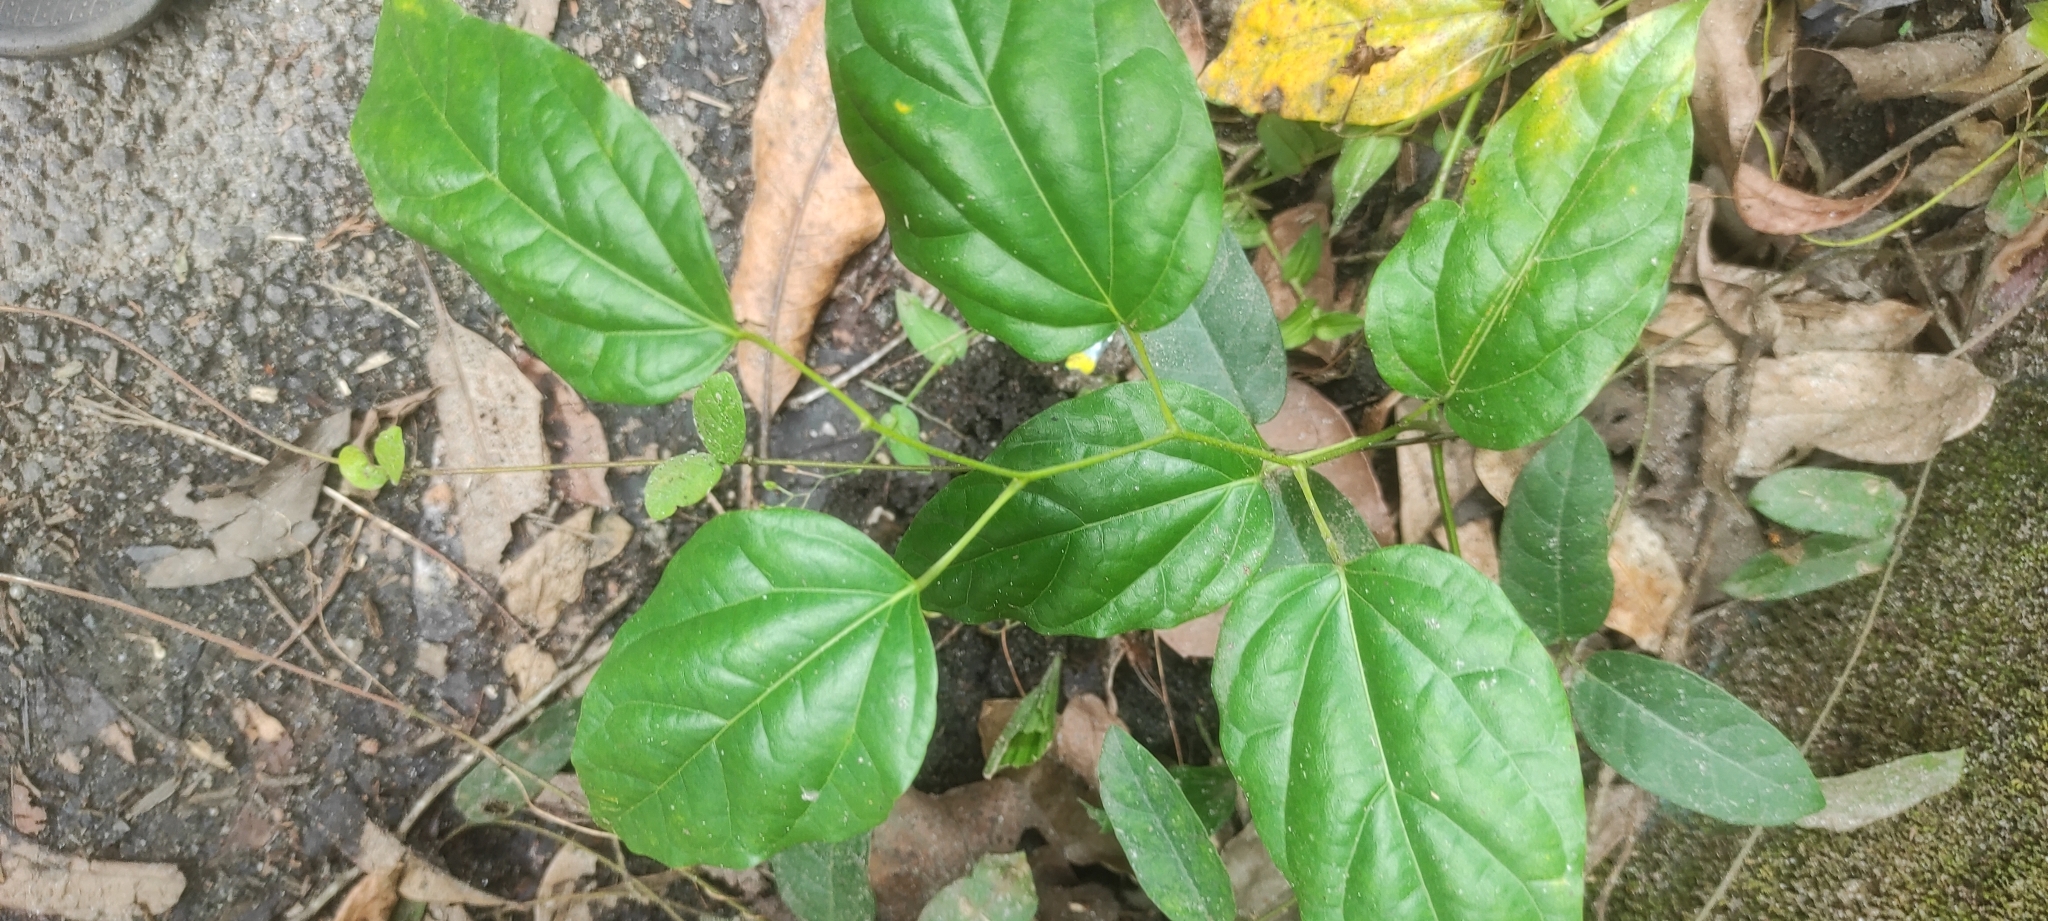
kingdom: Plantae
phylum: Tracheophyta
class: Magnoliopsida
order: Ranunculales
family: Menispermaceae
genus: Tiliacora
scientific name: Tiliacora acuminata
